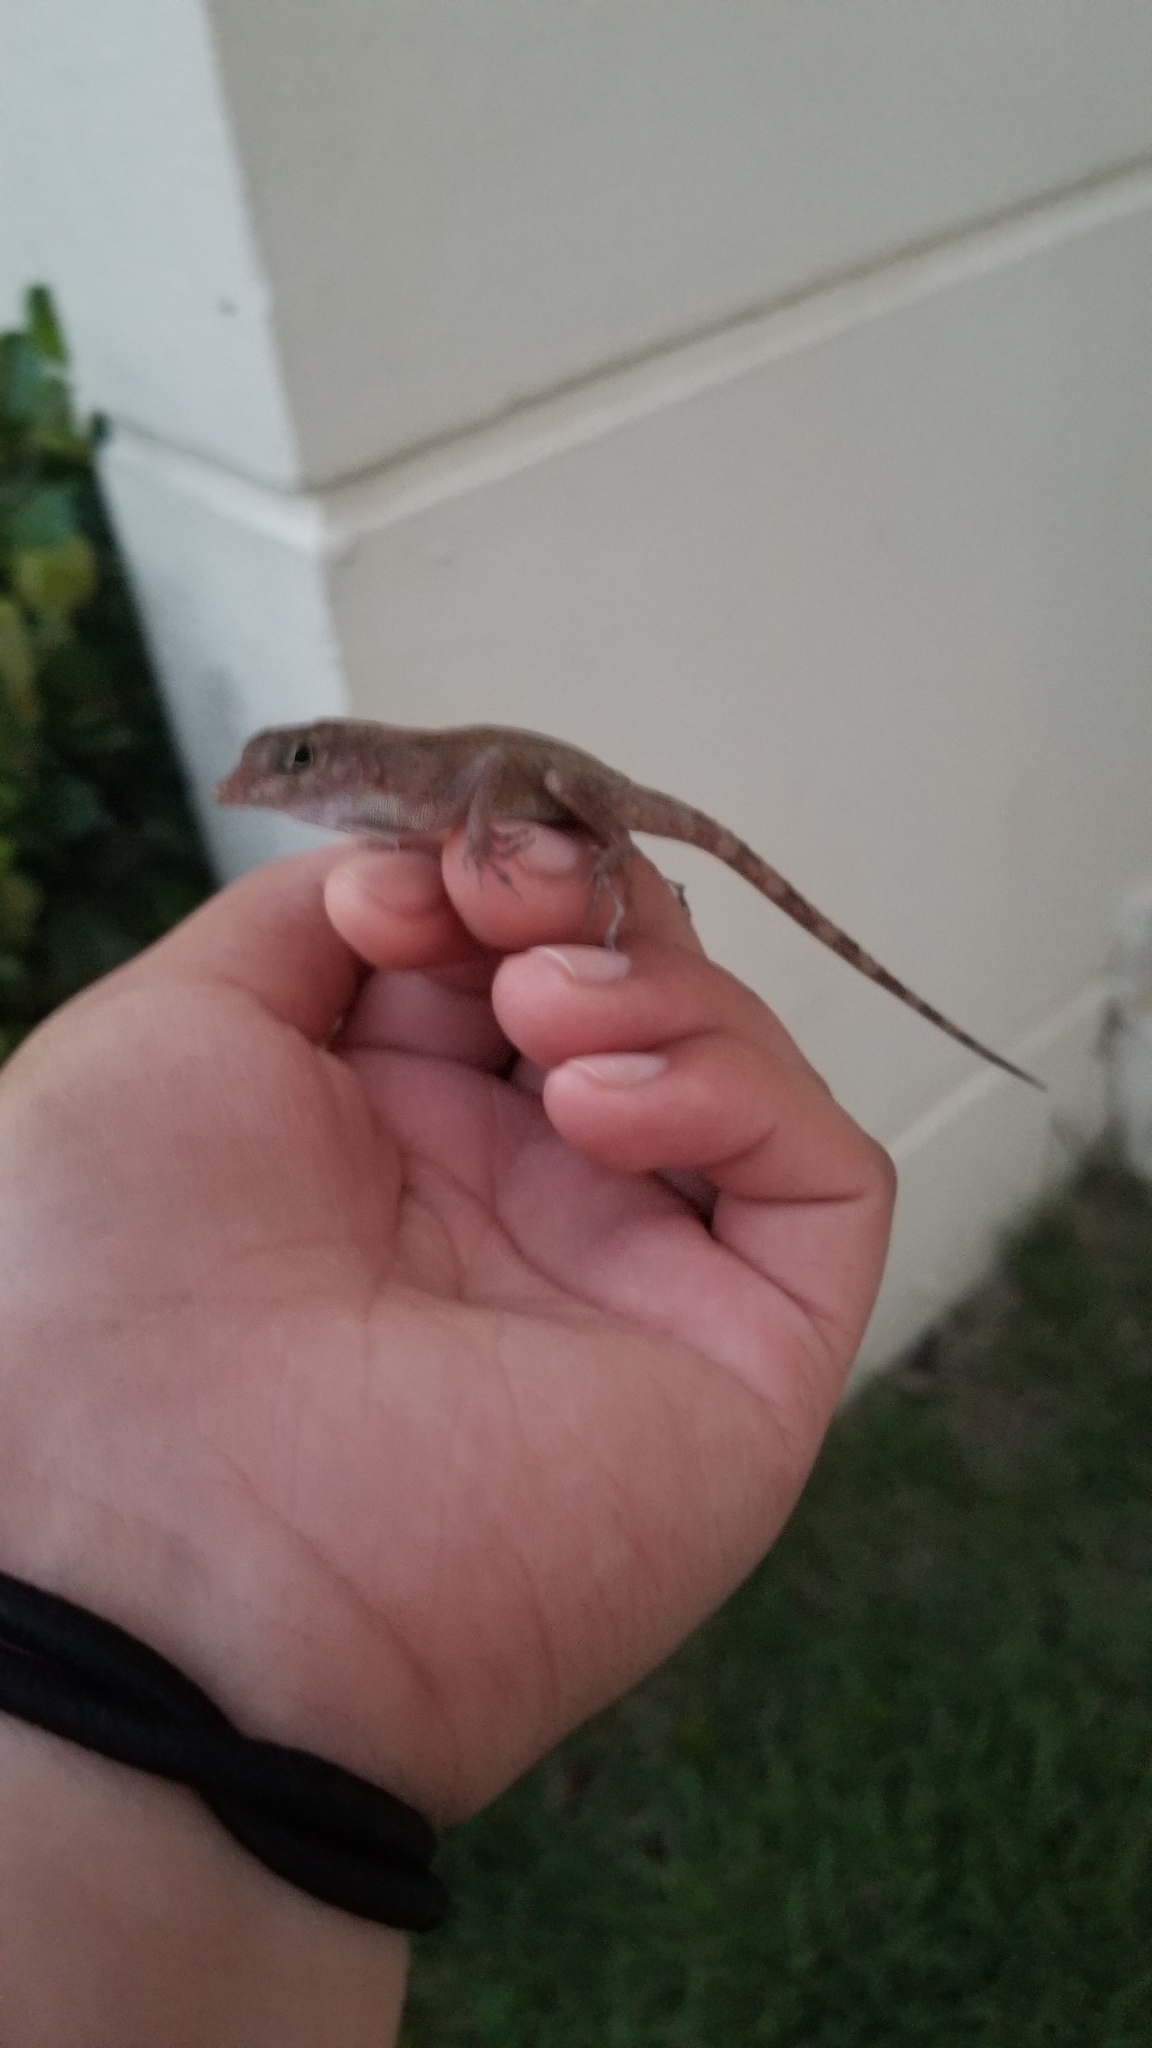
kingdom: Animalia
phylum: Chordata
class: Squamata
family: Dactyloidae
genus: Anolis
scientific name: Anolis cristatellus
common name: Crested anole
